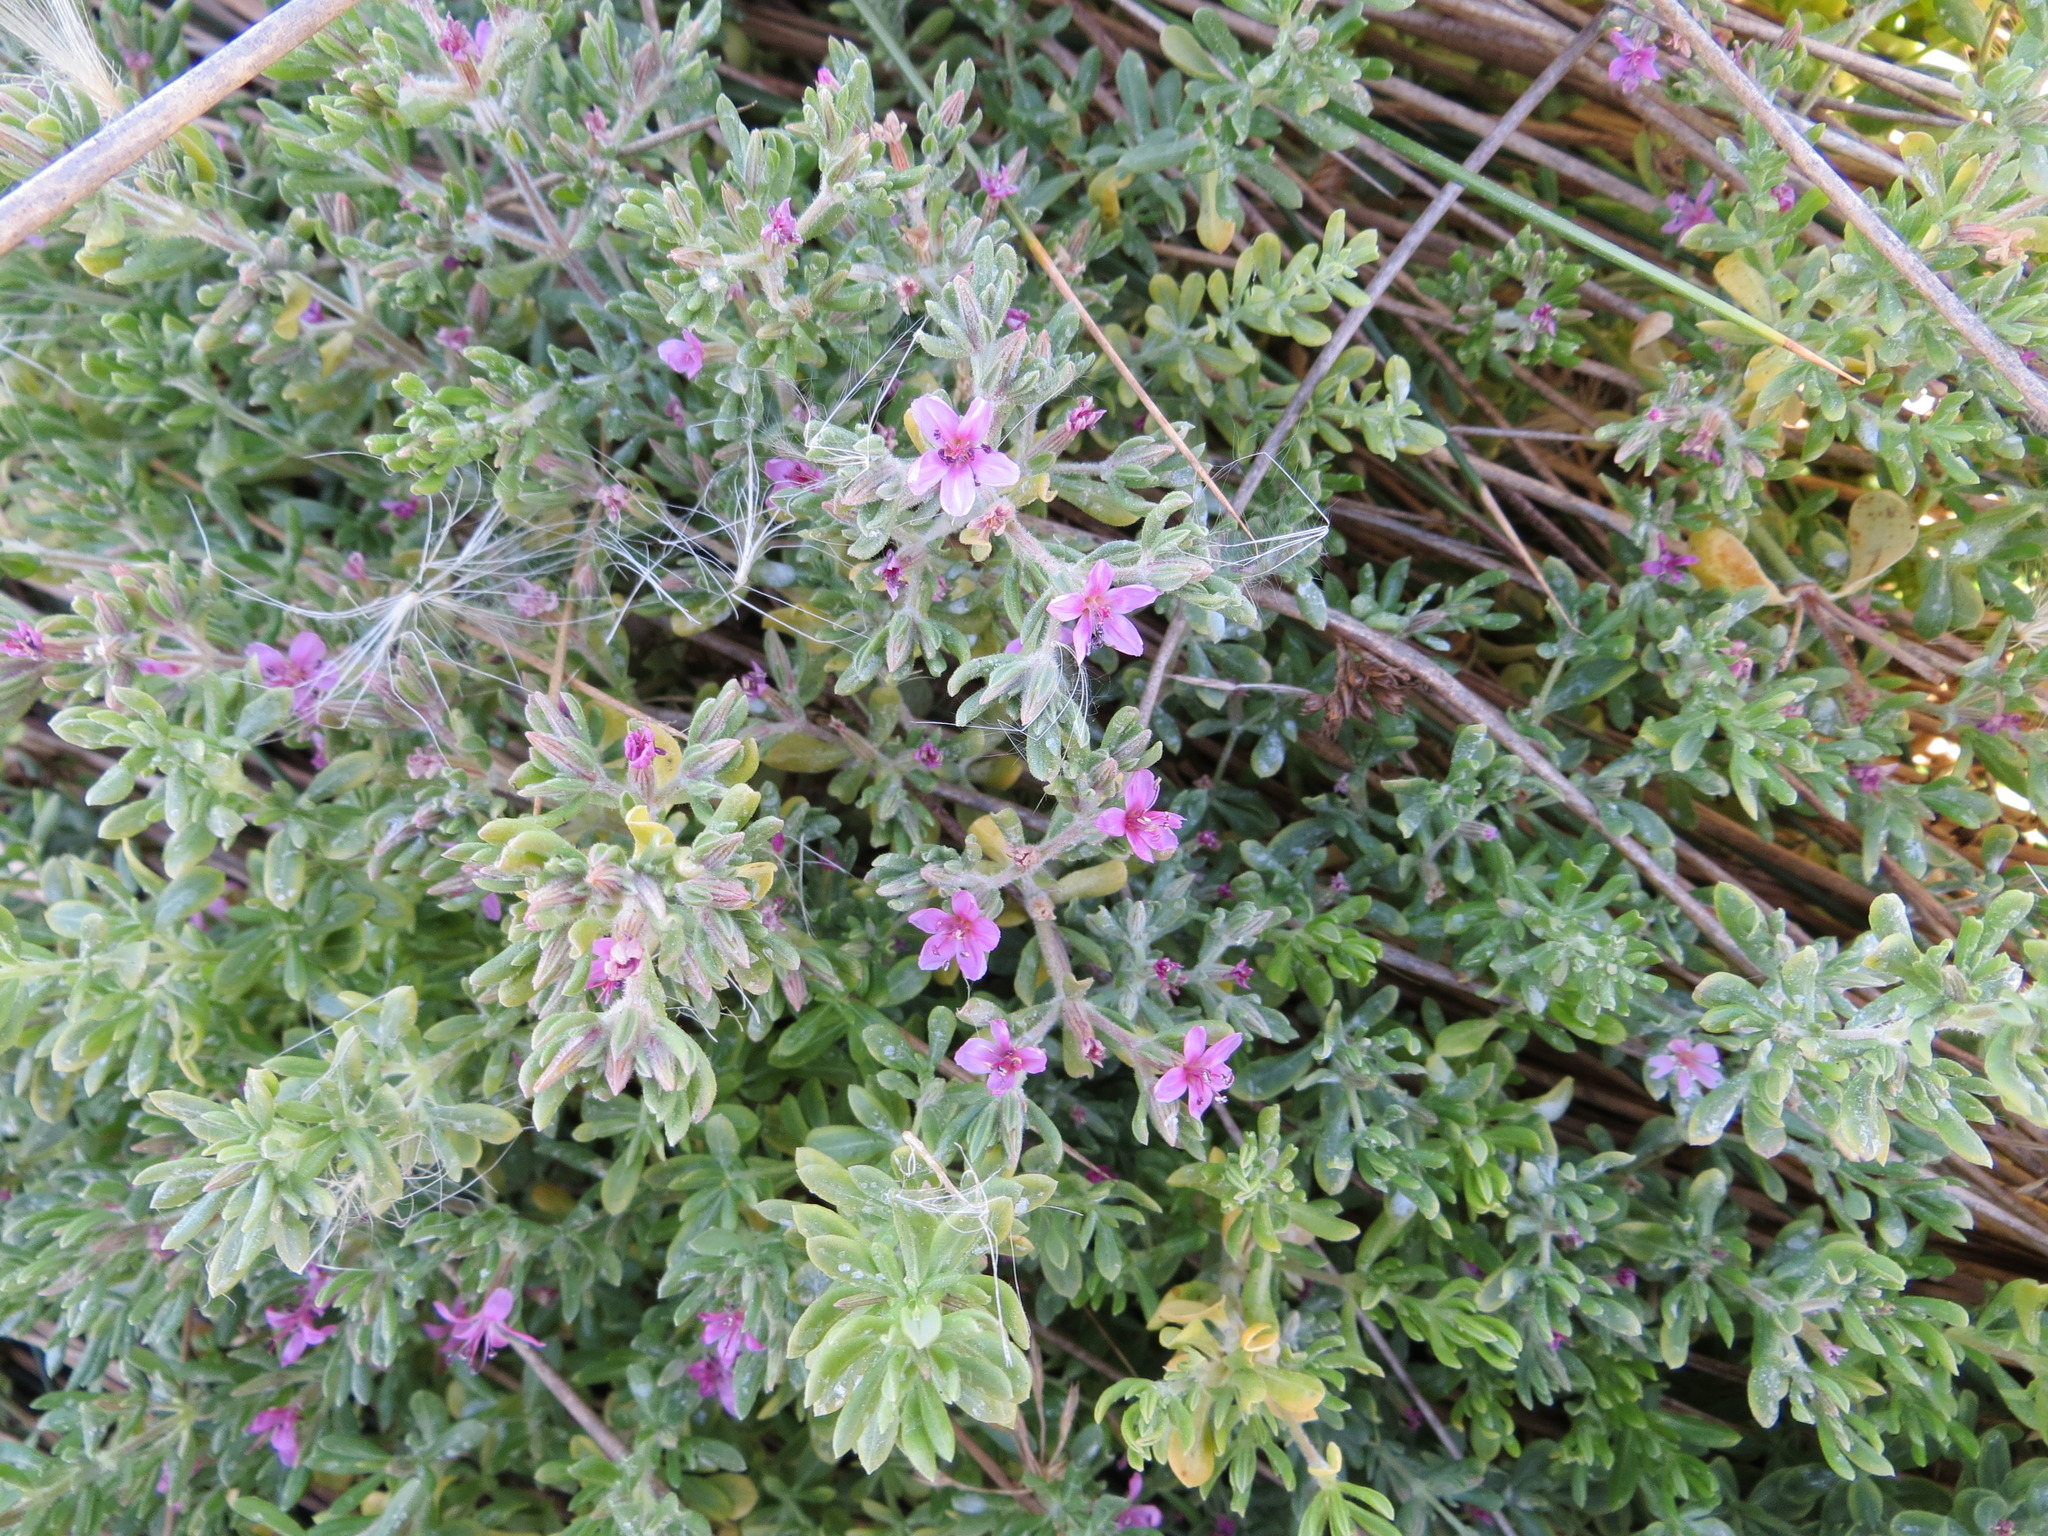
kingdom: Plantae
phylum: Tracheophyta
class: Magnoliopsida
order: Caryophyllales
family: Frankeniaceae
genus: Frankenia
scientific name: Frankenia salina
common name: Alkali seaheath
